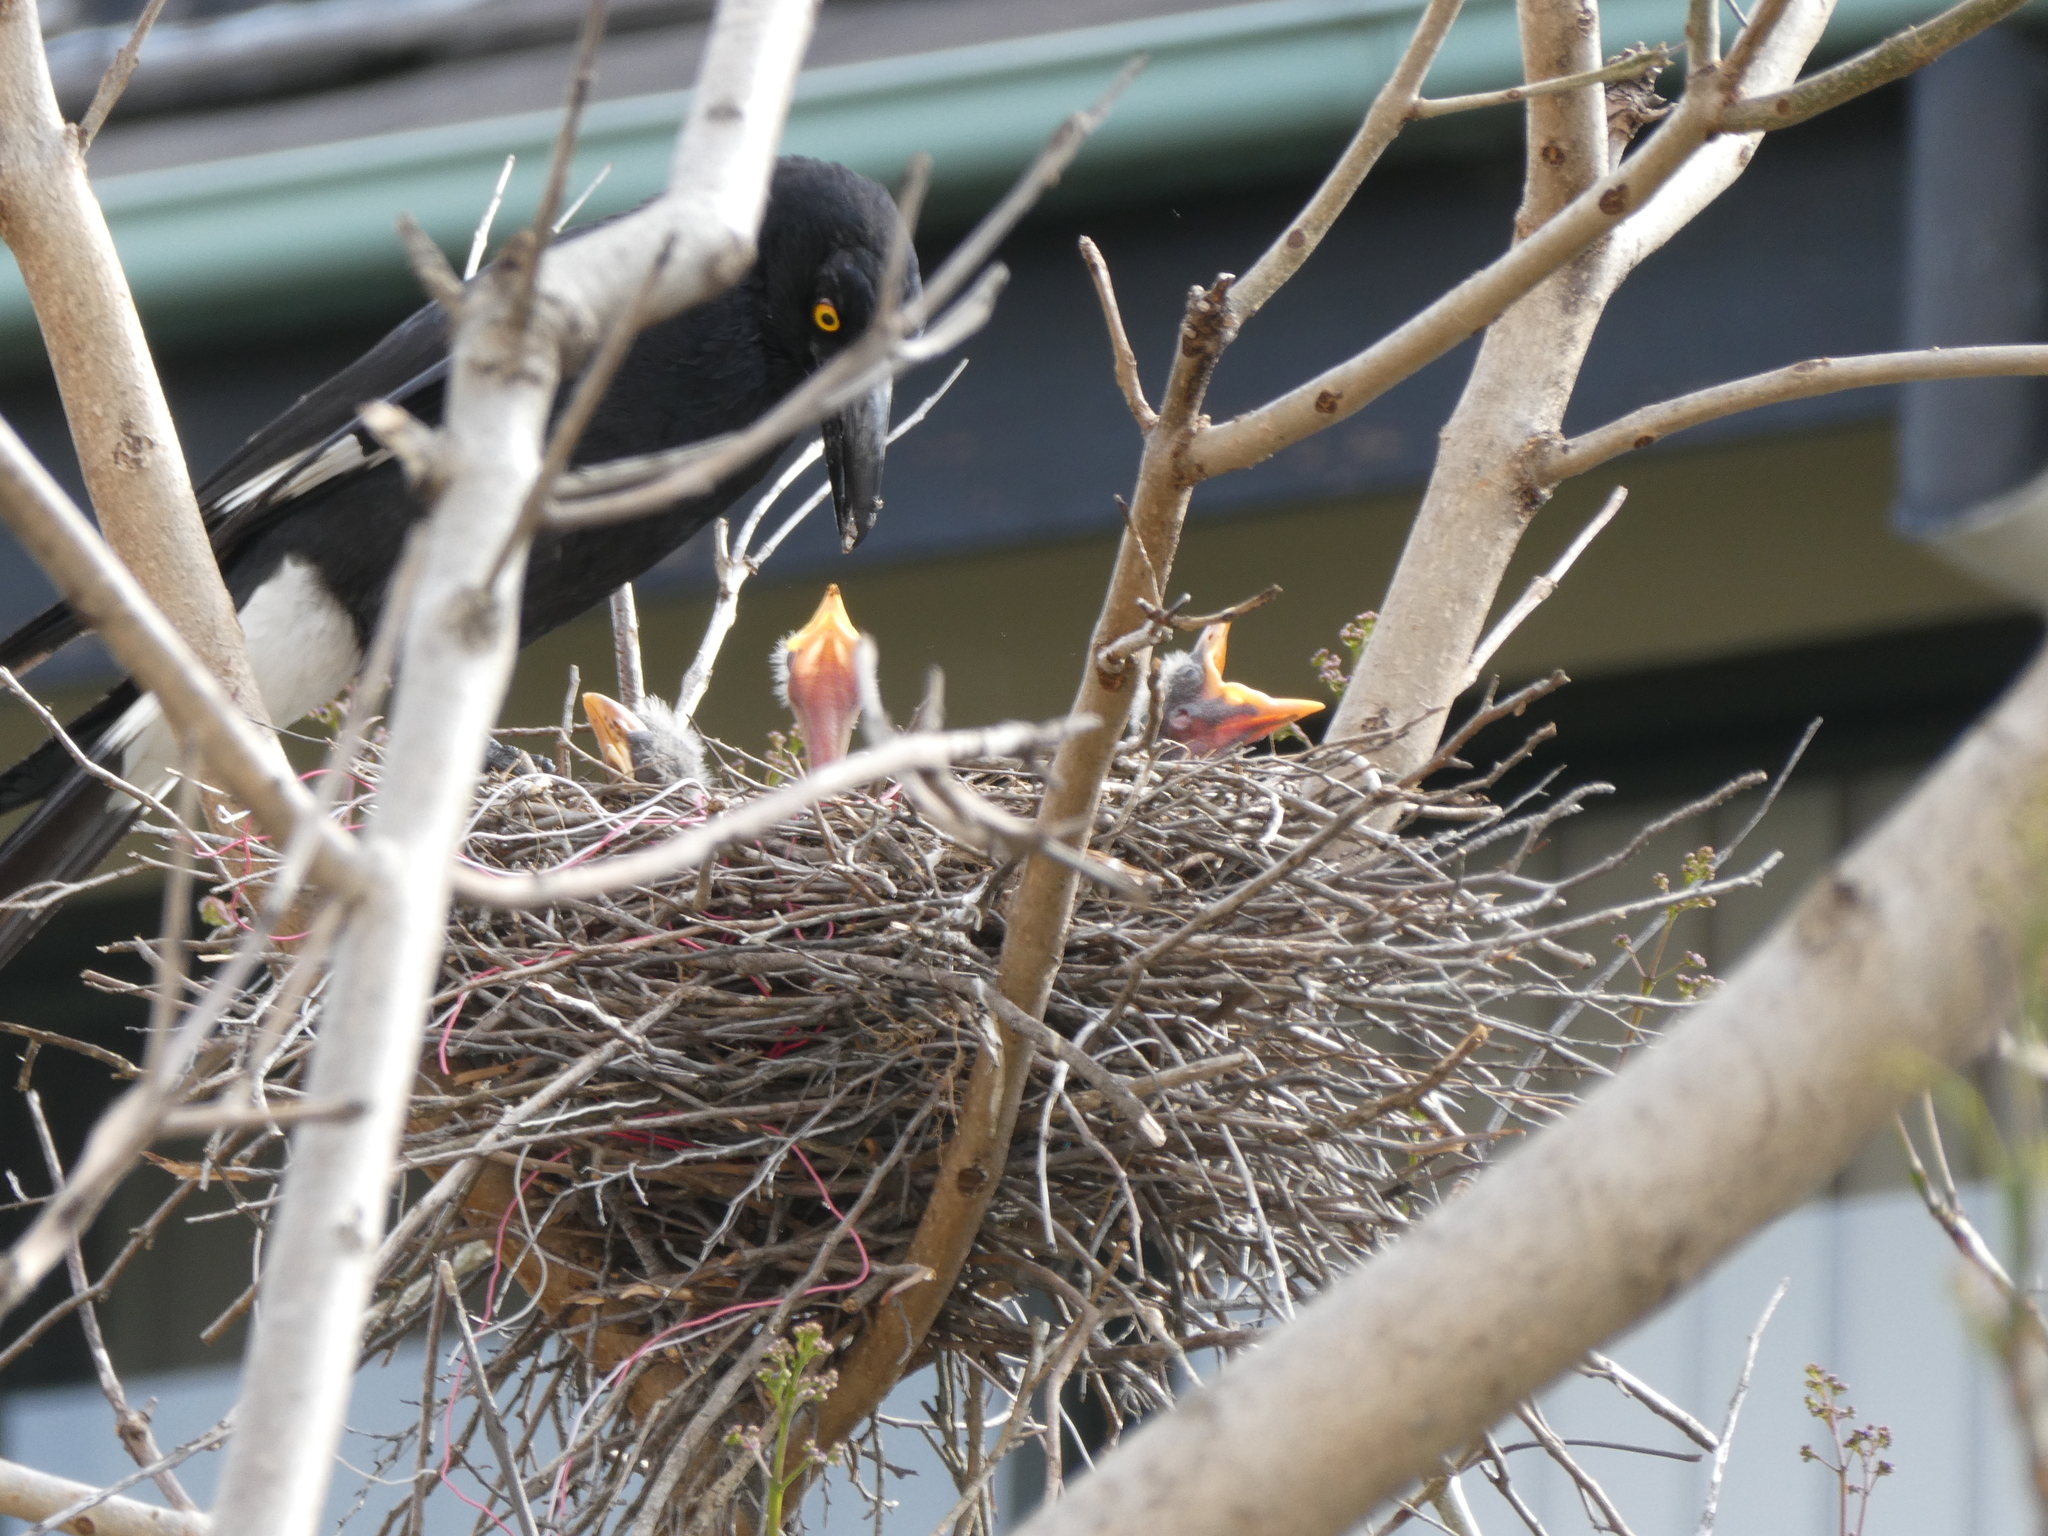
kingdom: Animalia
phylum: Chordata
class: Aves
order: Passeriformes
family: Cracticidae
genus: Strepera
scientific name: Strepera graculina
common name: Pied currawong
